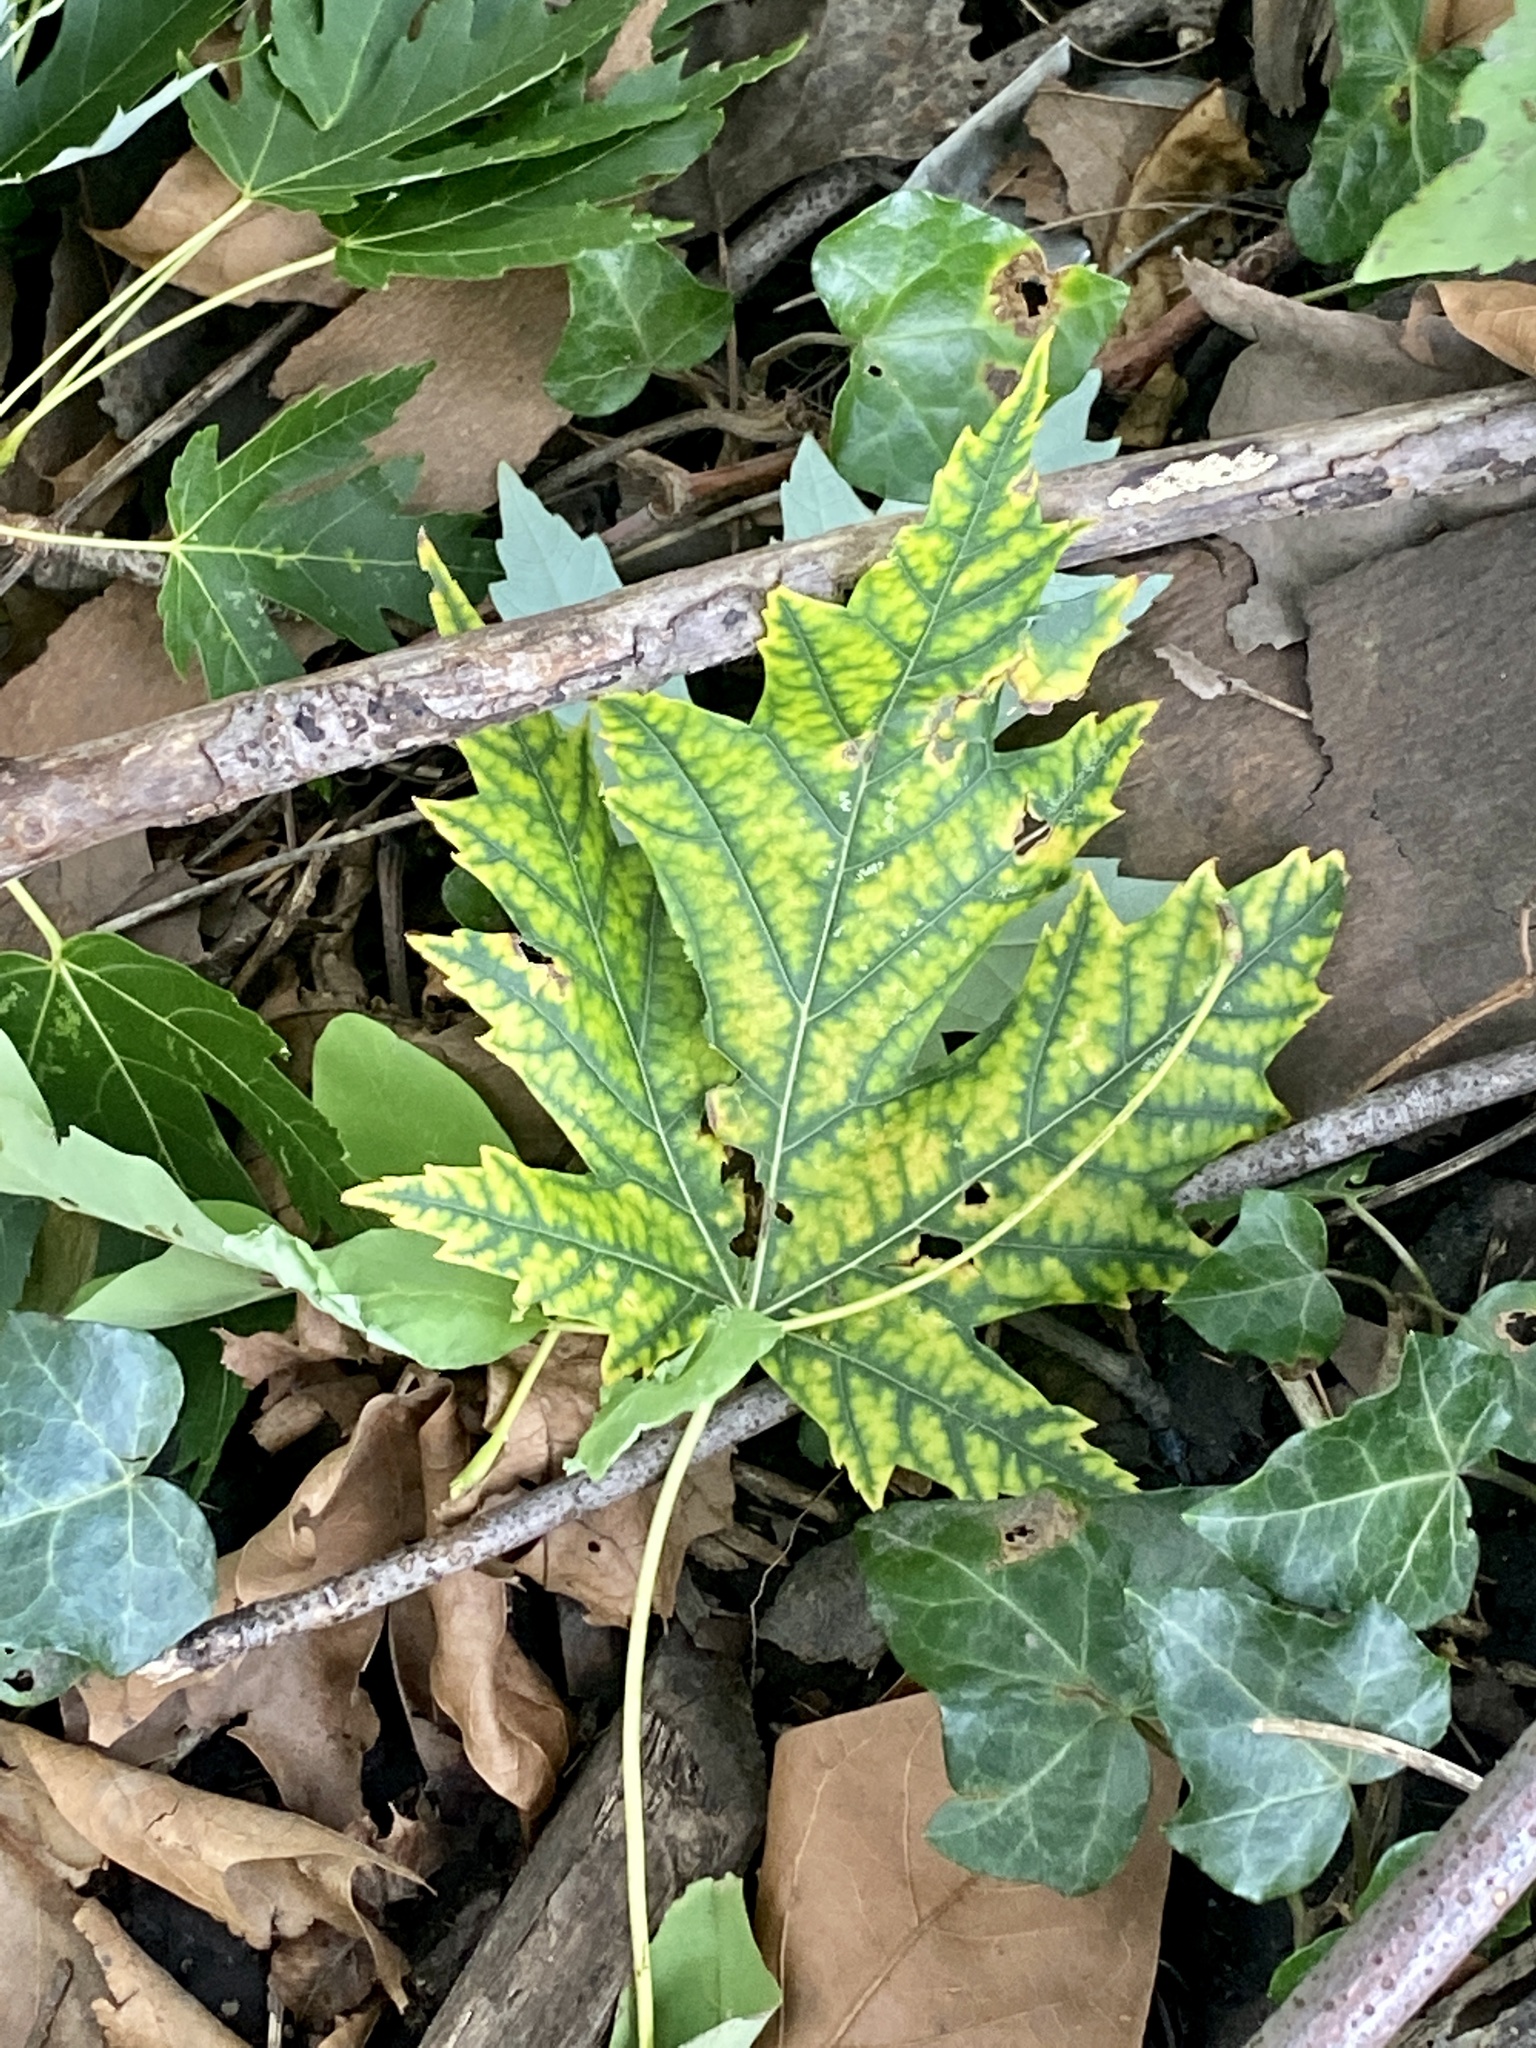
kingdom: Plantae
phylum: Tracheophyta
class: Magnoliopsida
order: Sapindales
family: Sapindaceae
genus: Acer
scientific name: Acer saccharinum
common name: Silver maple
